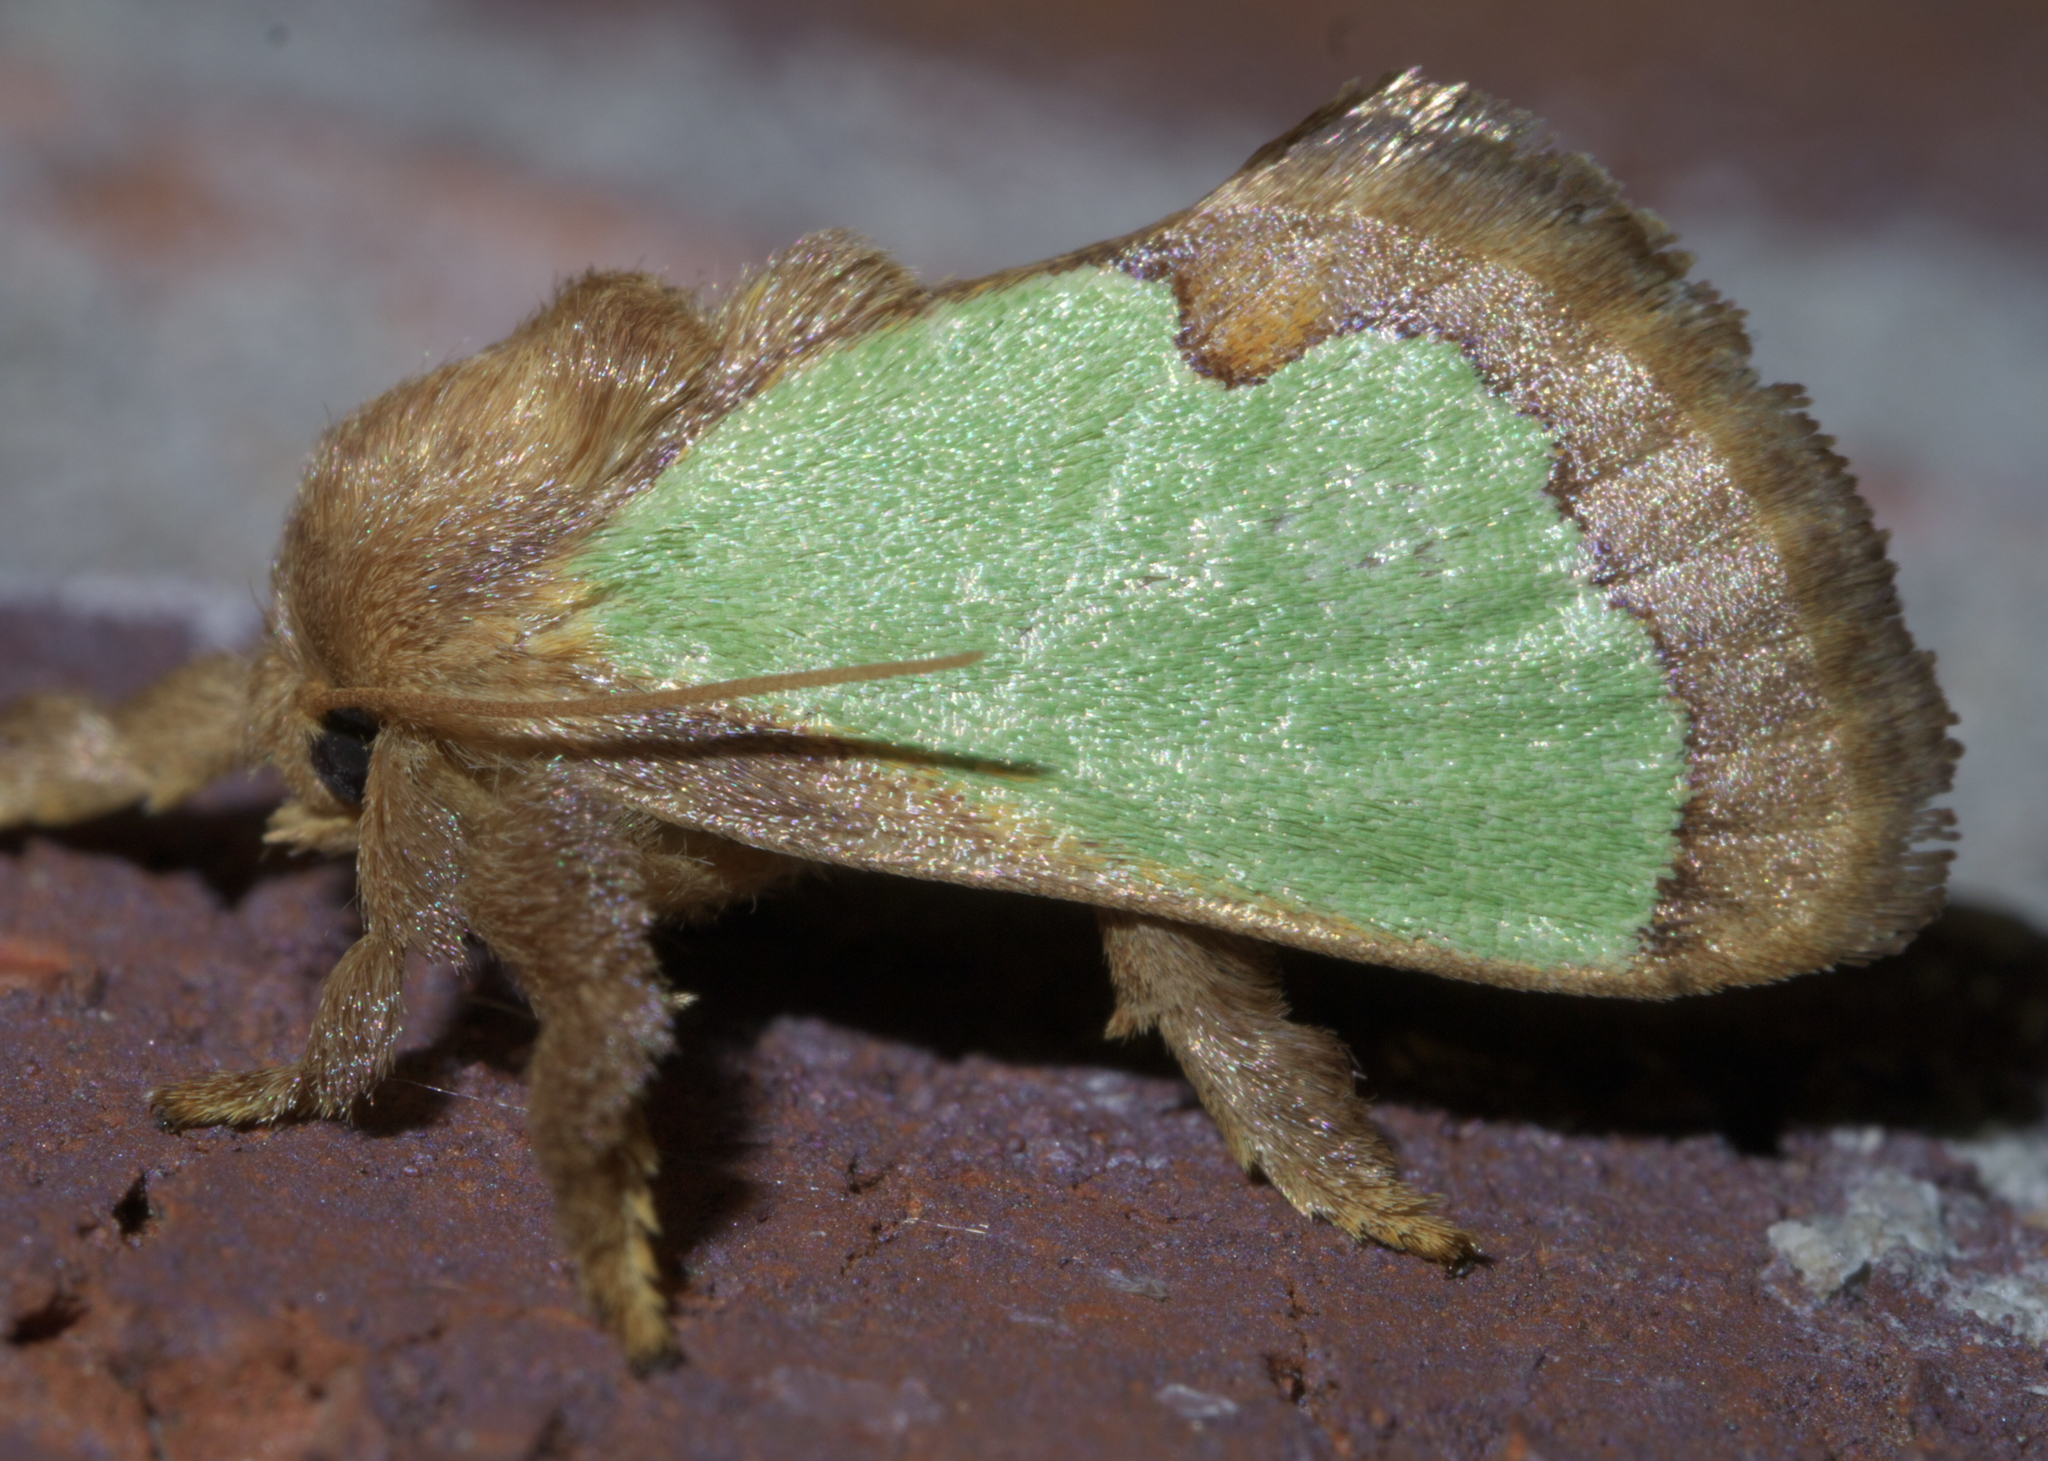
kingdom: Animalia
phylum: Arthropoda
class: Insecta
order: Lepidoptera
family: Limacodidae
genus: Euclea
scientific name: Euclea incisa
